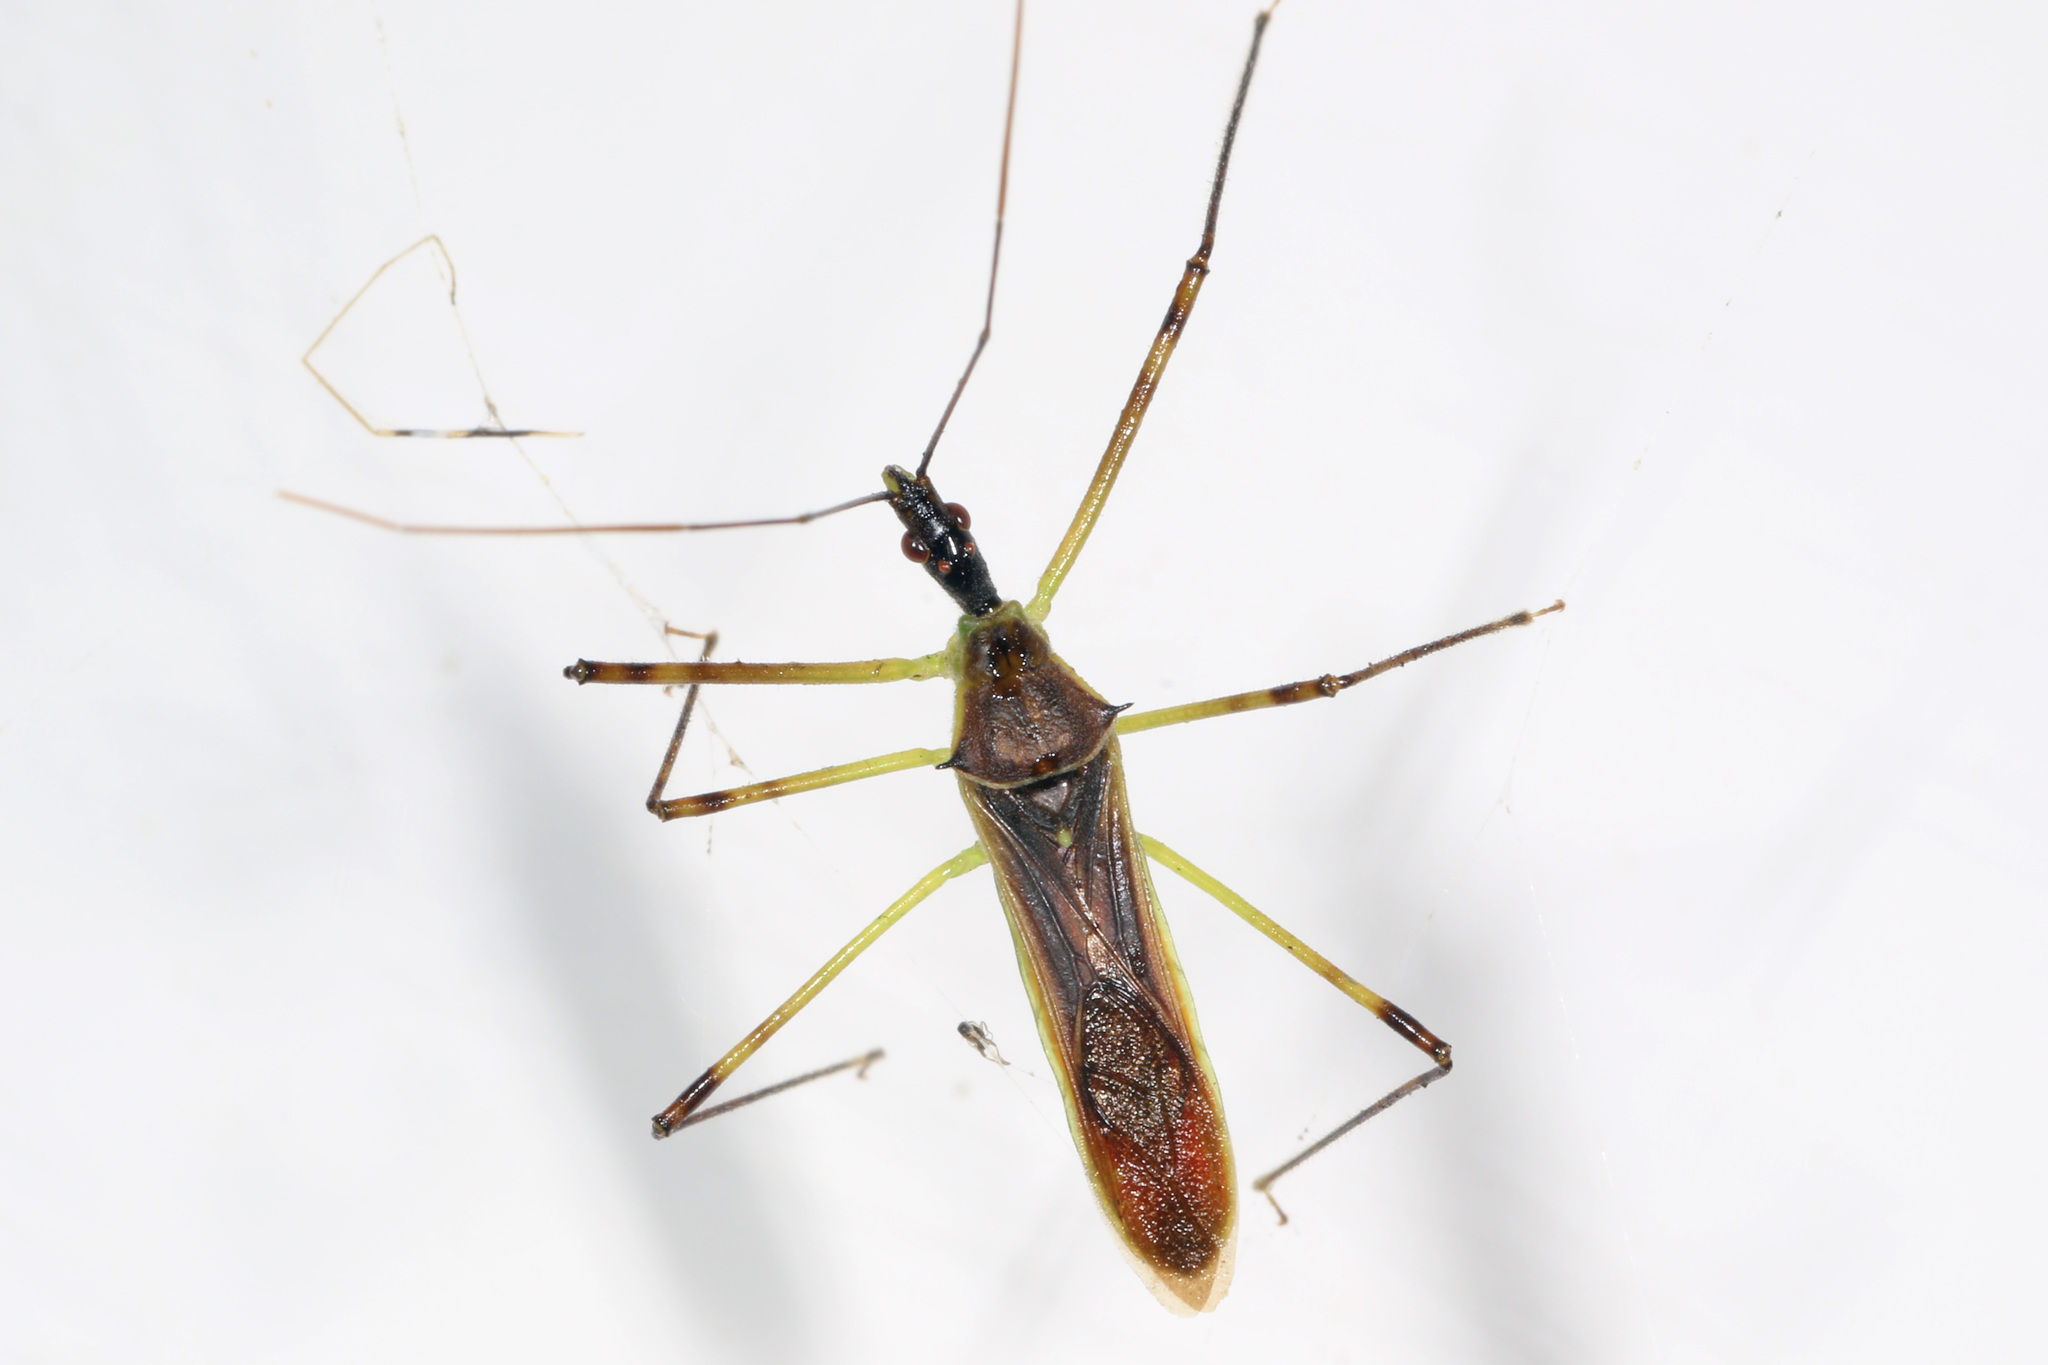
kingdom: Animalia
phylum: Arthropoda
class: Insecta
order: Hemiptera
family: Reduviidae
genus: Zelus
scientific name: Zelus luridus
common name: Pale green assassin bug
